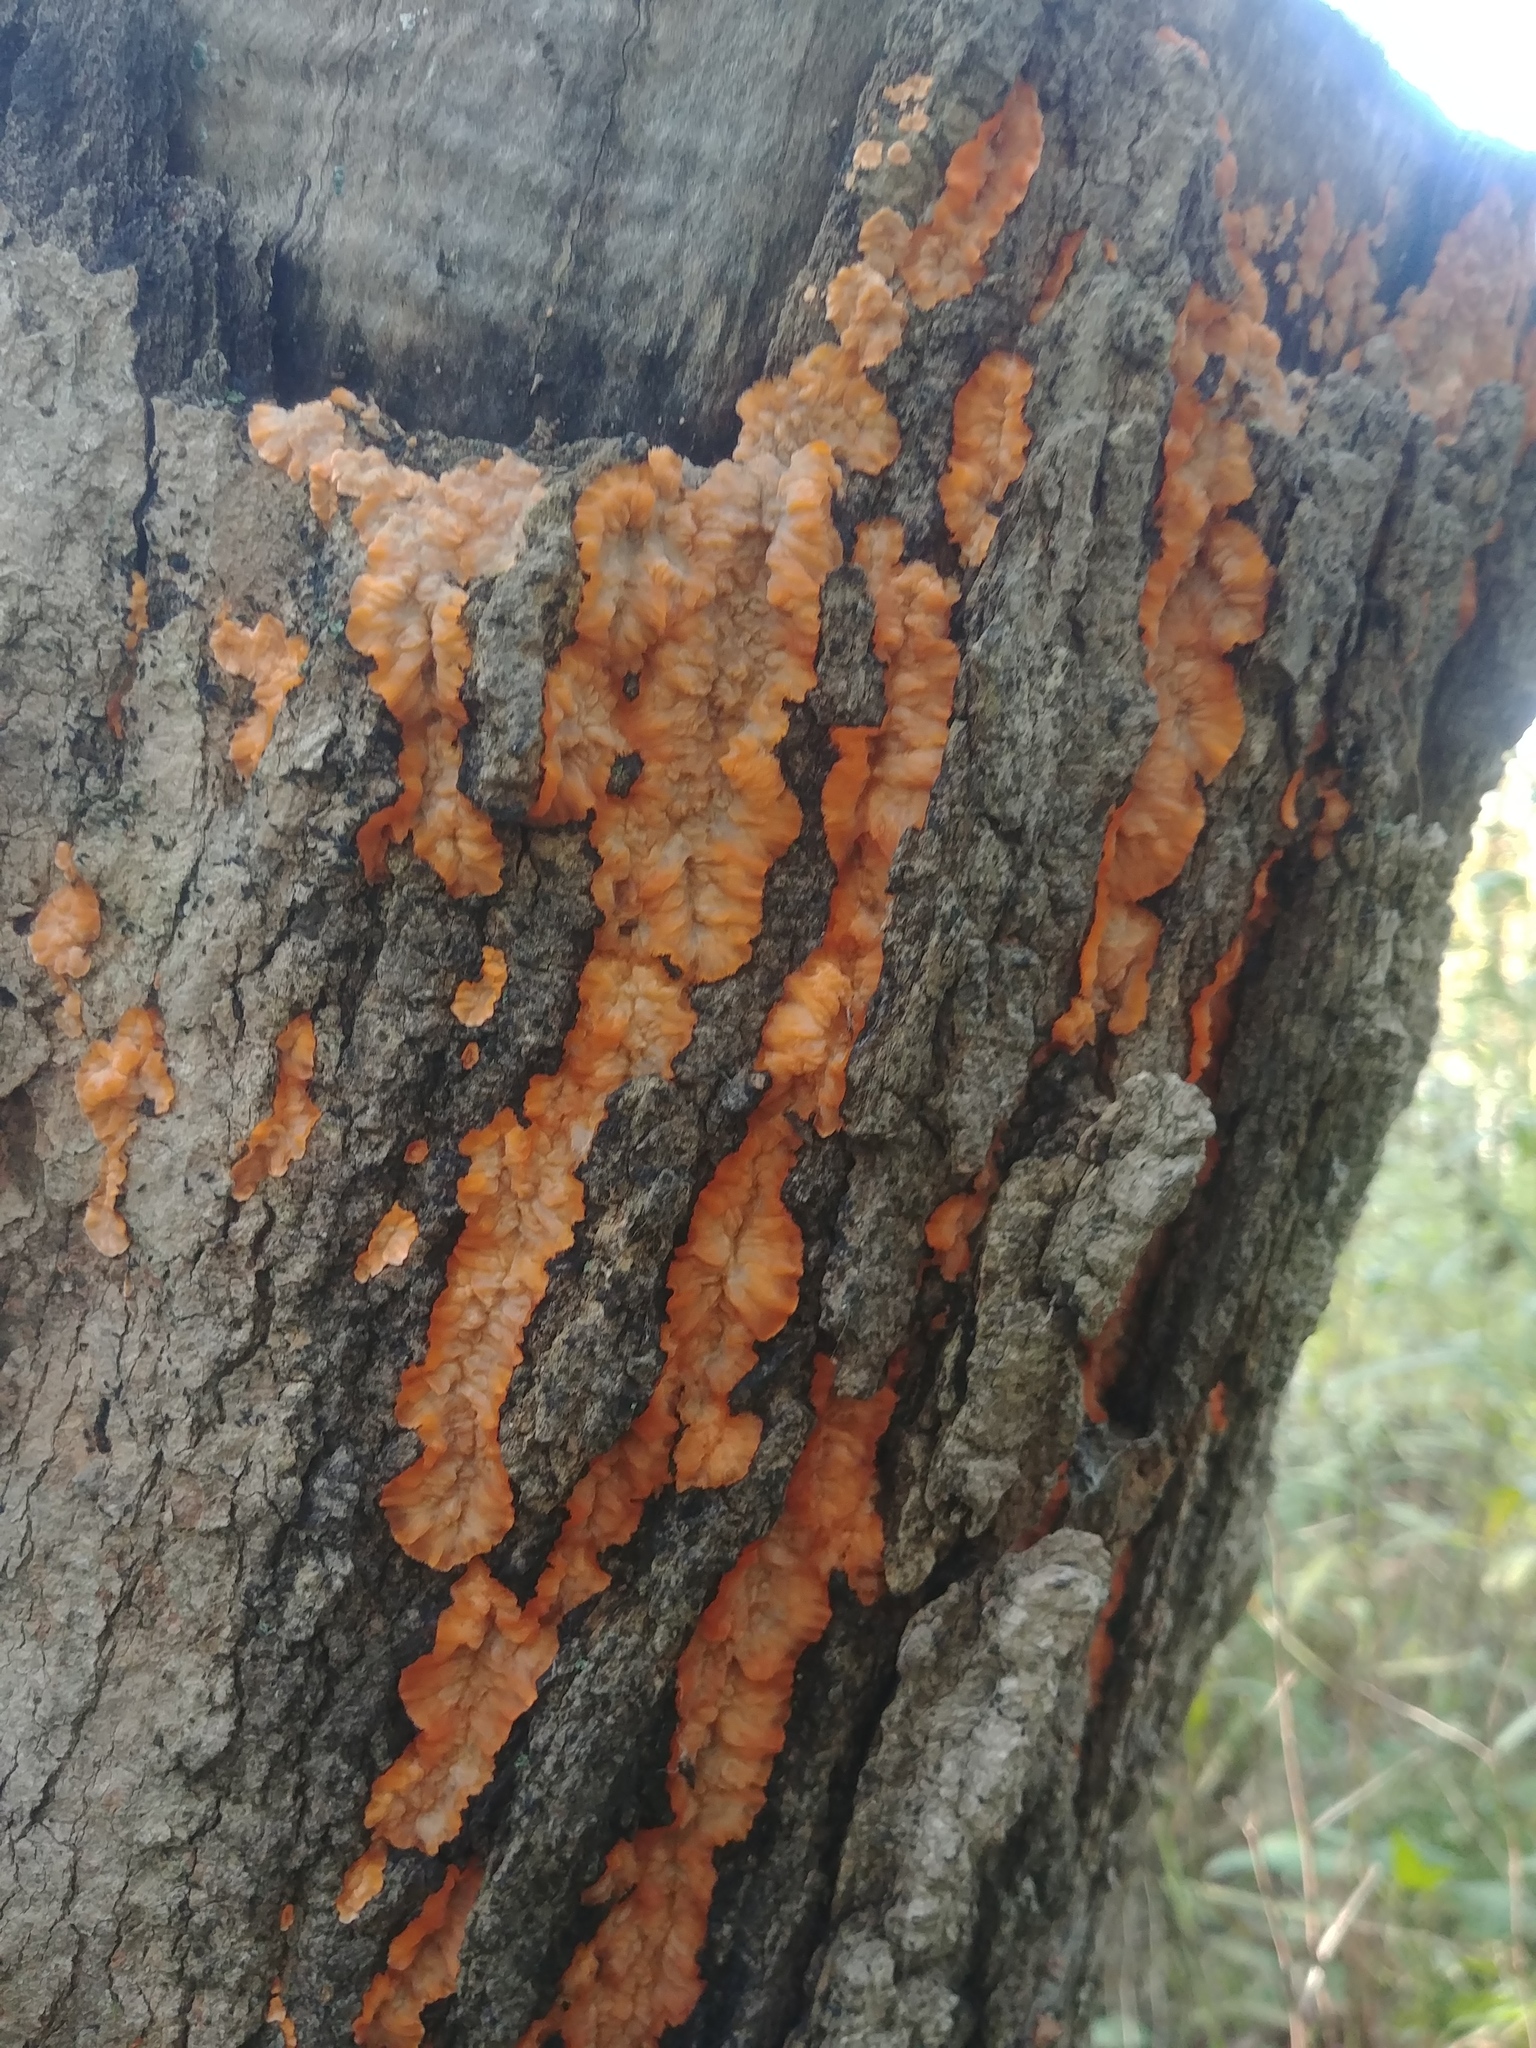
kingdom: Fungi
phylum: Basidiomycota
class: Agaricomycetes
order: Polyporales
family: Meruliaceae
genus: Phlebia
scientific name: Phlebia radiata
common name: Wrinkled crust
